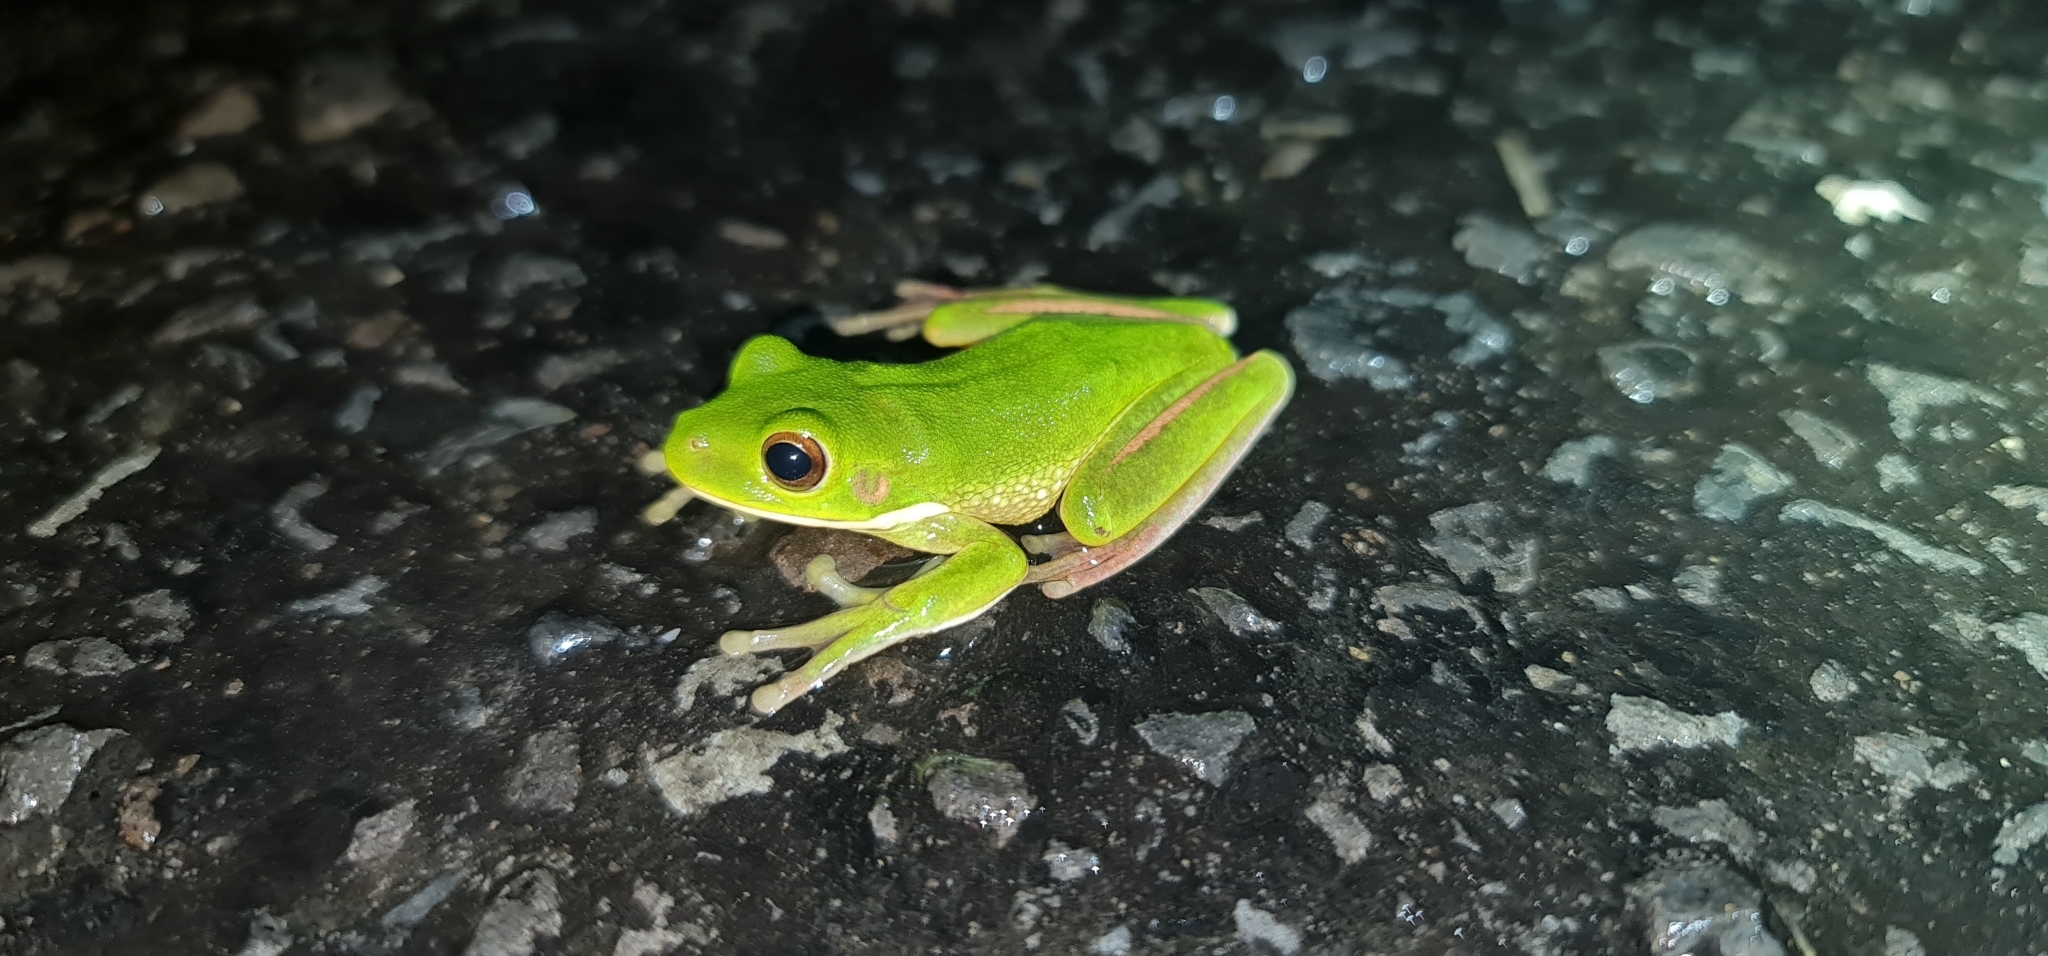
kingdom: Animalia
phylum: Chordata
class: Amphibia
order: Anura
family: Pelodryadidae
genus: Nyctimystes
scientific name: Nyctimystes infrafrenatus
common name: Australian giant treefrog
